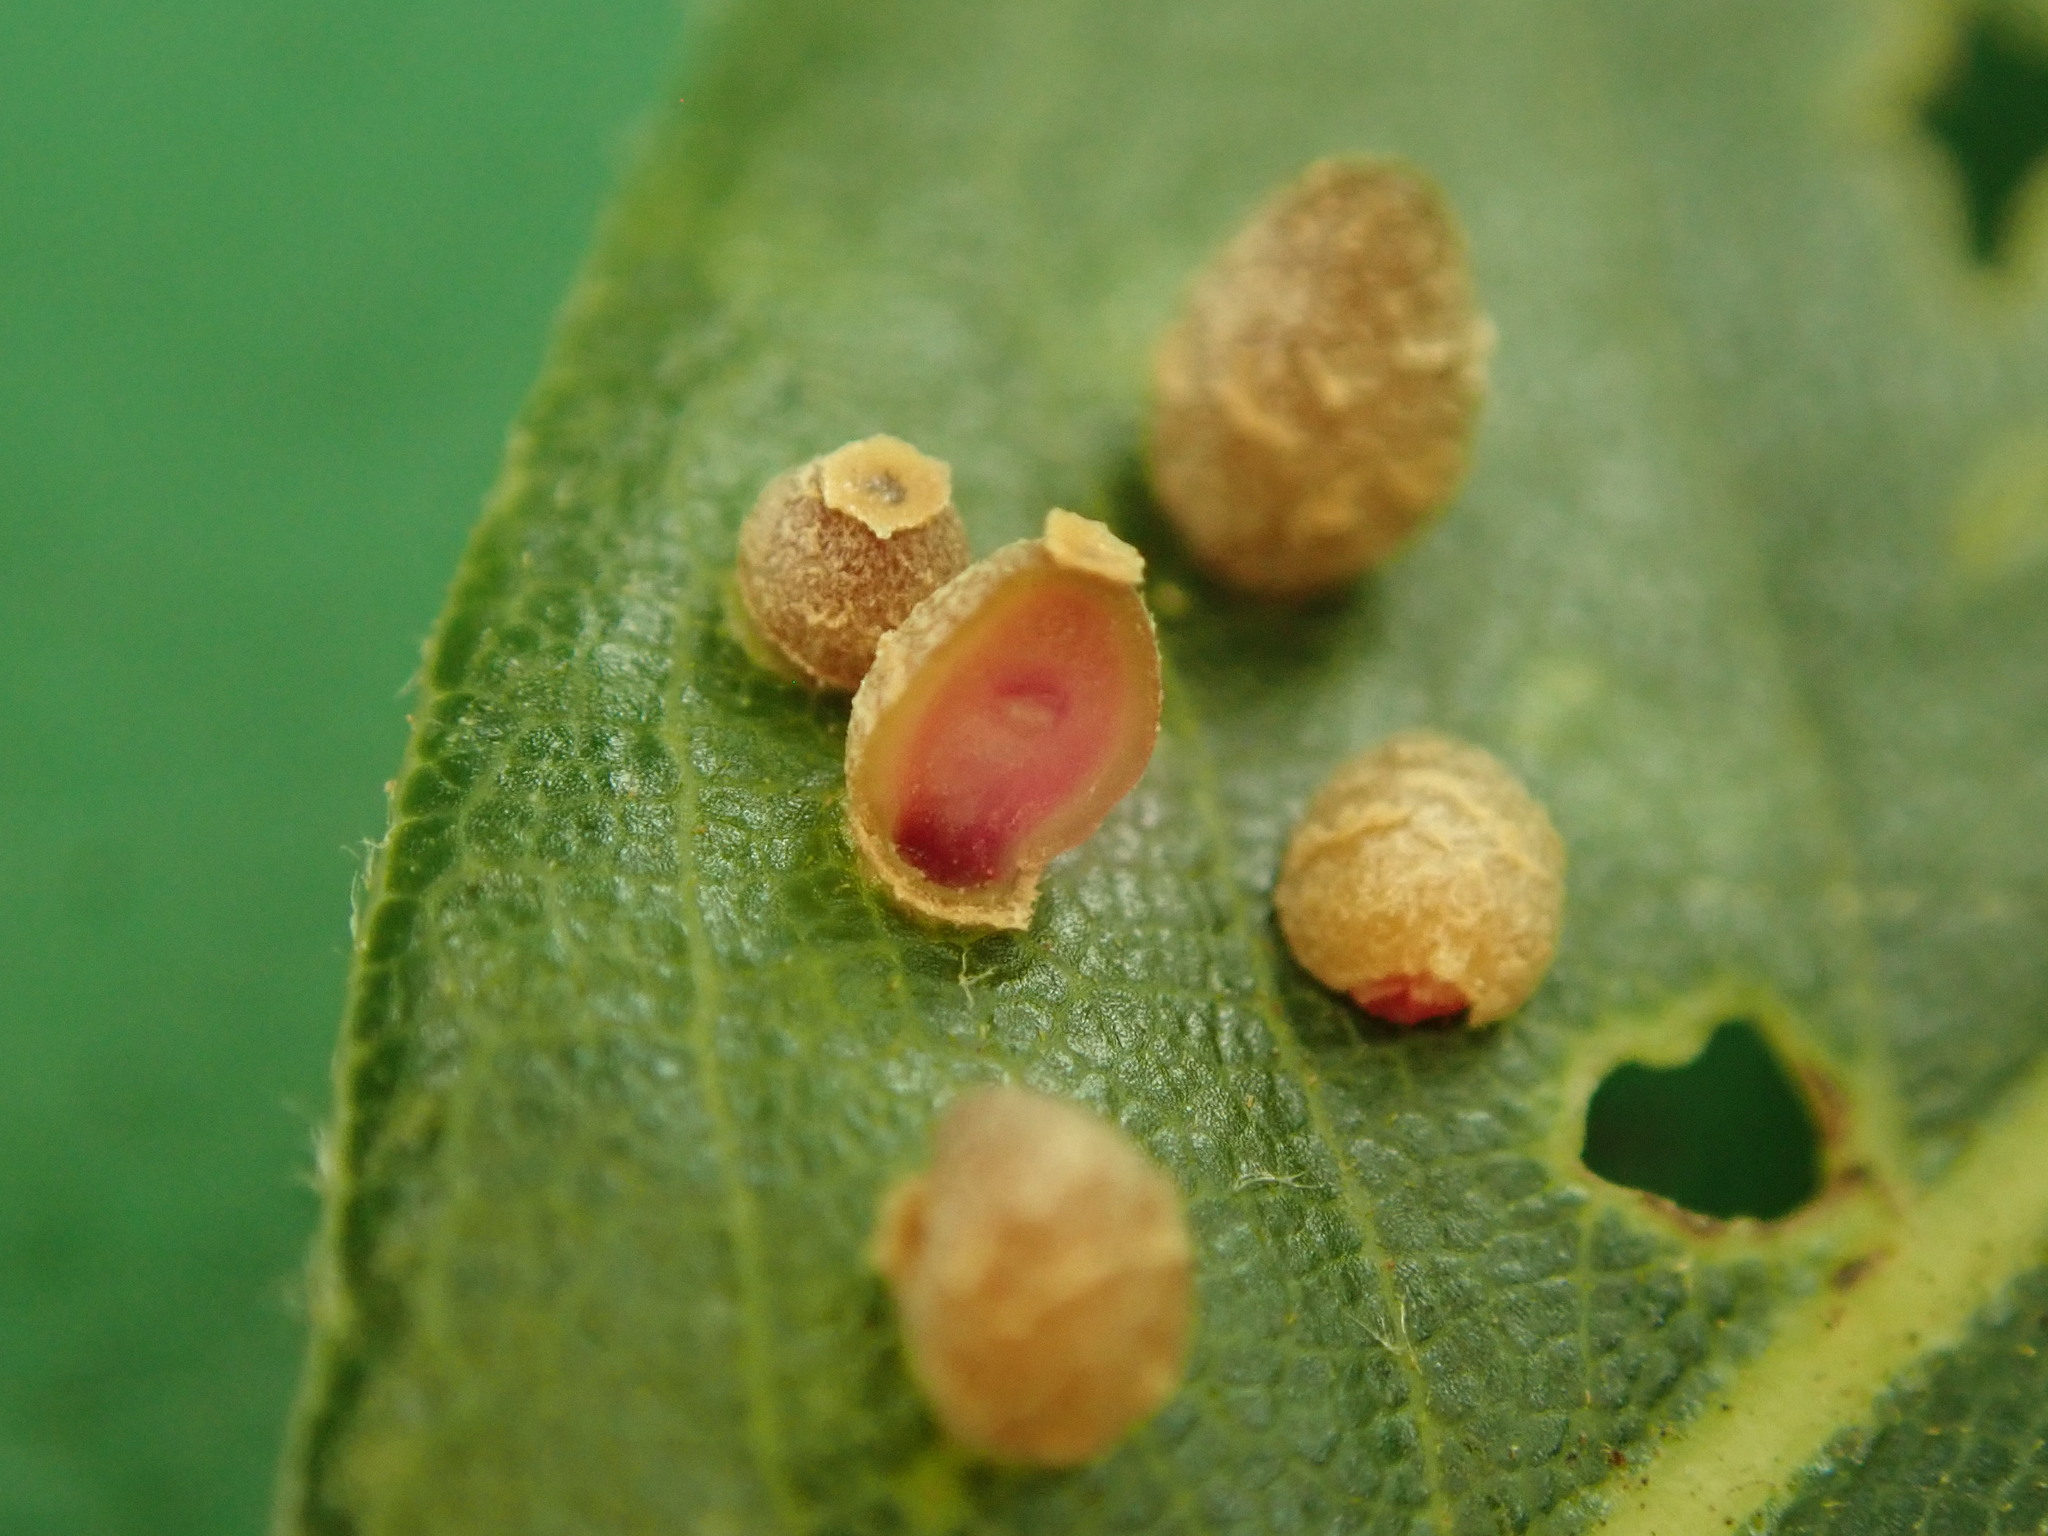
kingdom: Animalia
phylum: Arthropoda
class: Insecta
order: Diptera
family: Cecidomyiidae
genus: Polystepha
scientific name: Polystepha
